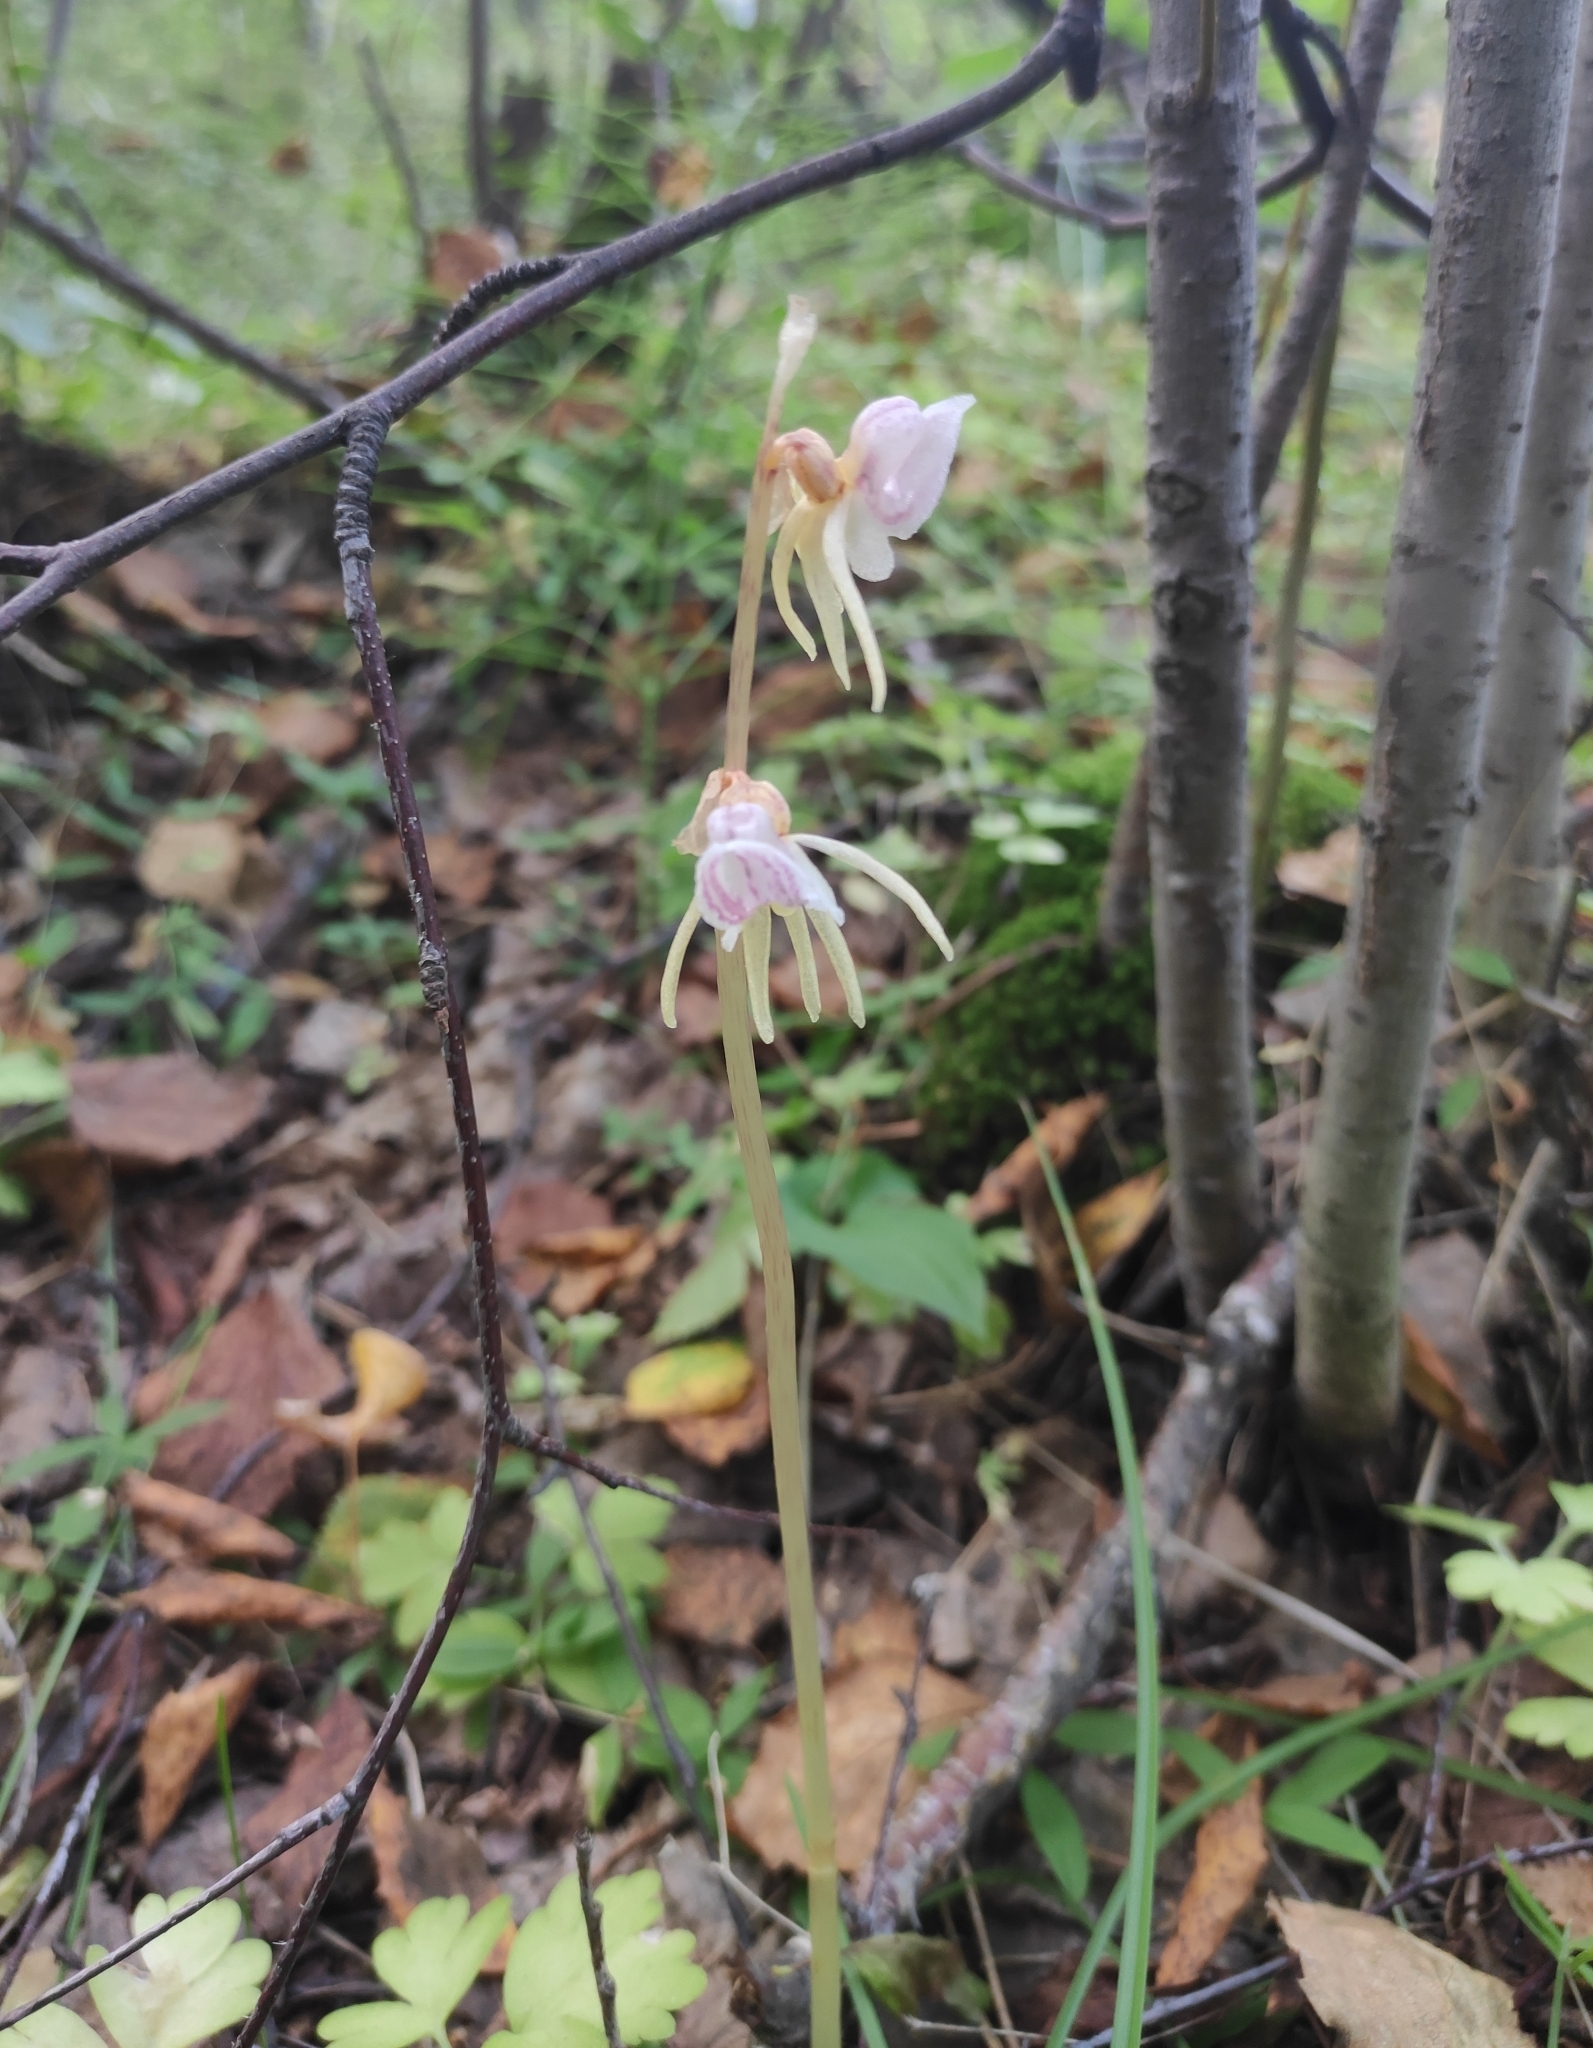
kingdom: Plantae
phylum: Tracheophyta
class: Liliopsida
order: Asparagales
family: Orchidaceae
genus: Epipogium
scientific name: Epipogium aphyllum
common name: Ghost orchid
